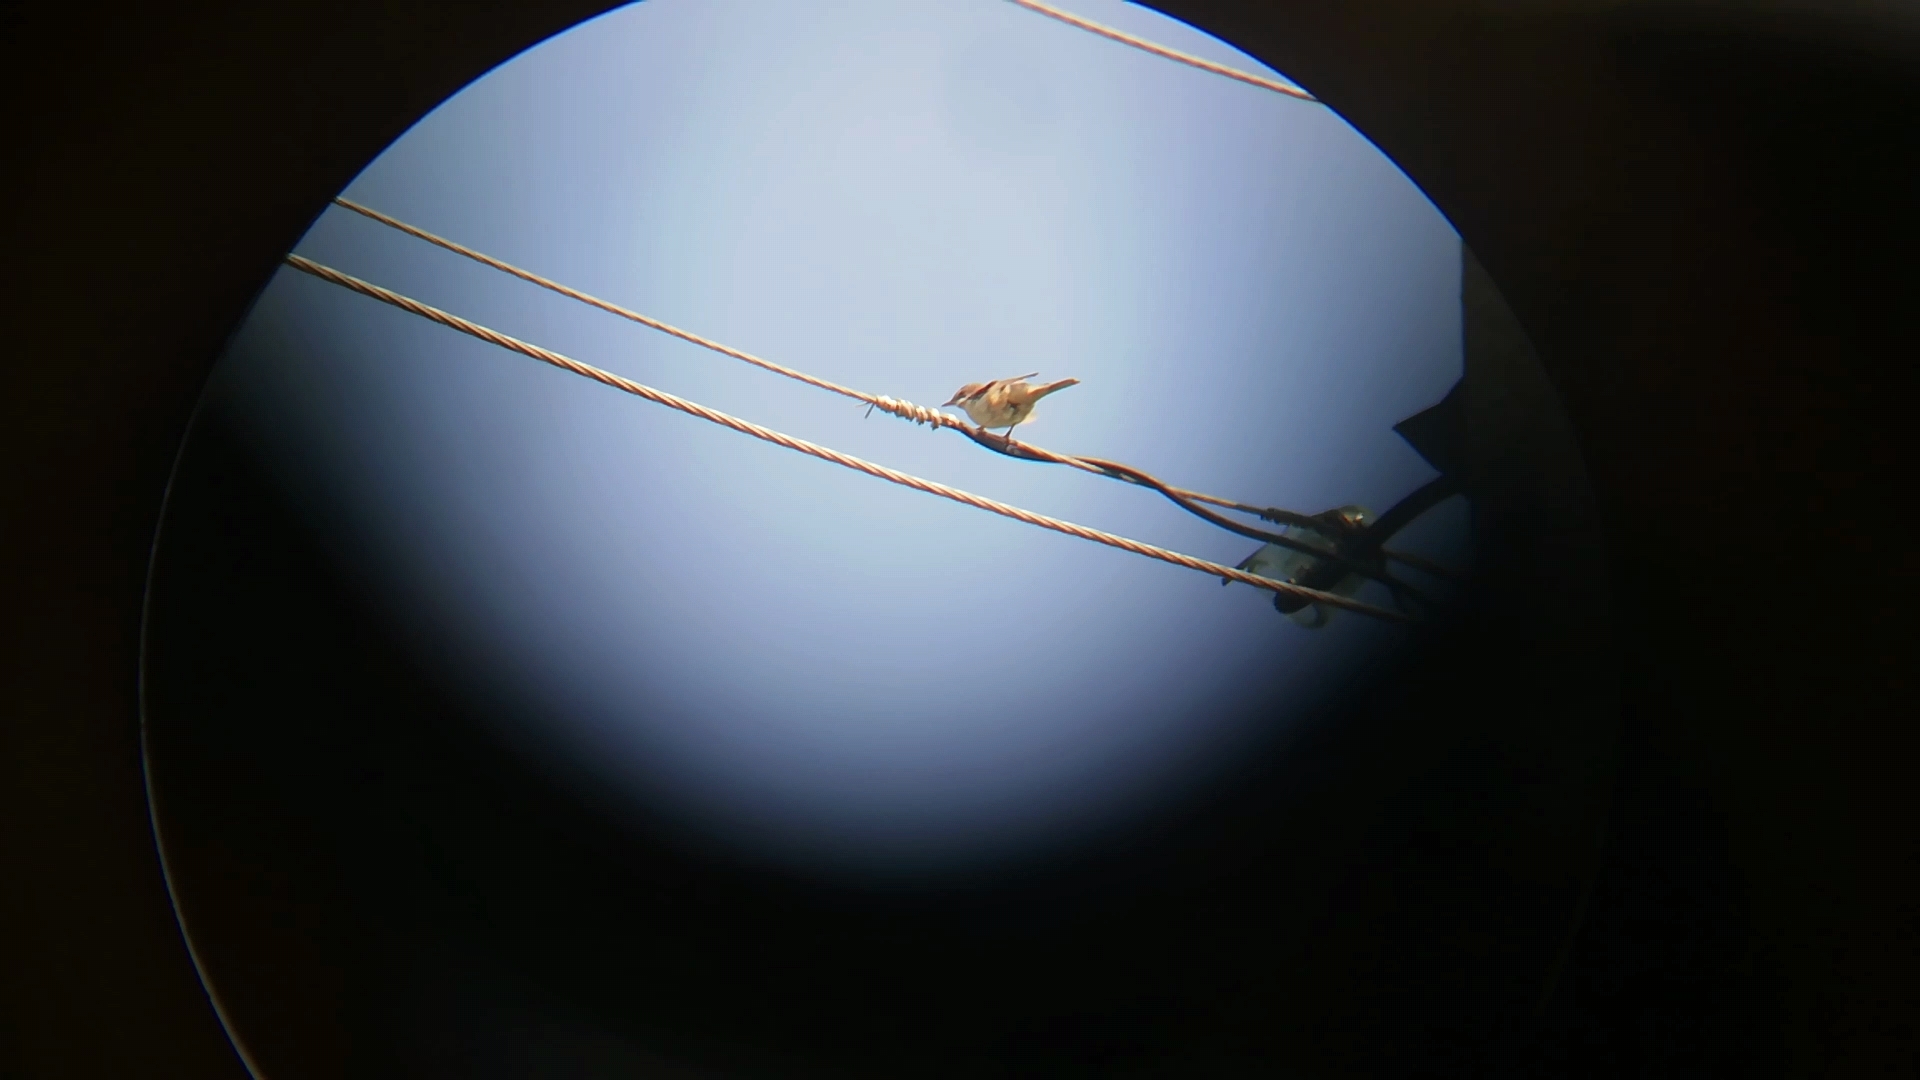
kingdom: Animalia
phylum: Chordata
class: Aves
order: Passeriformes
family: Sylviidae
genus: Sylvia
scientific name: Sylvia communis
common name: Common whitethroat
